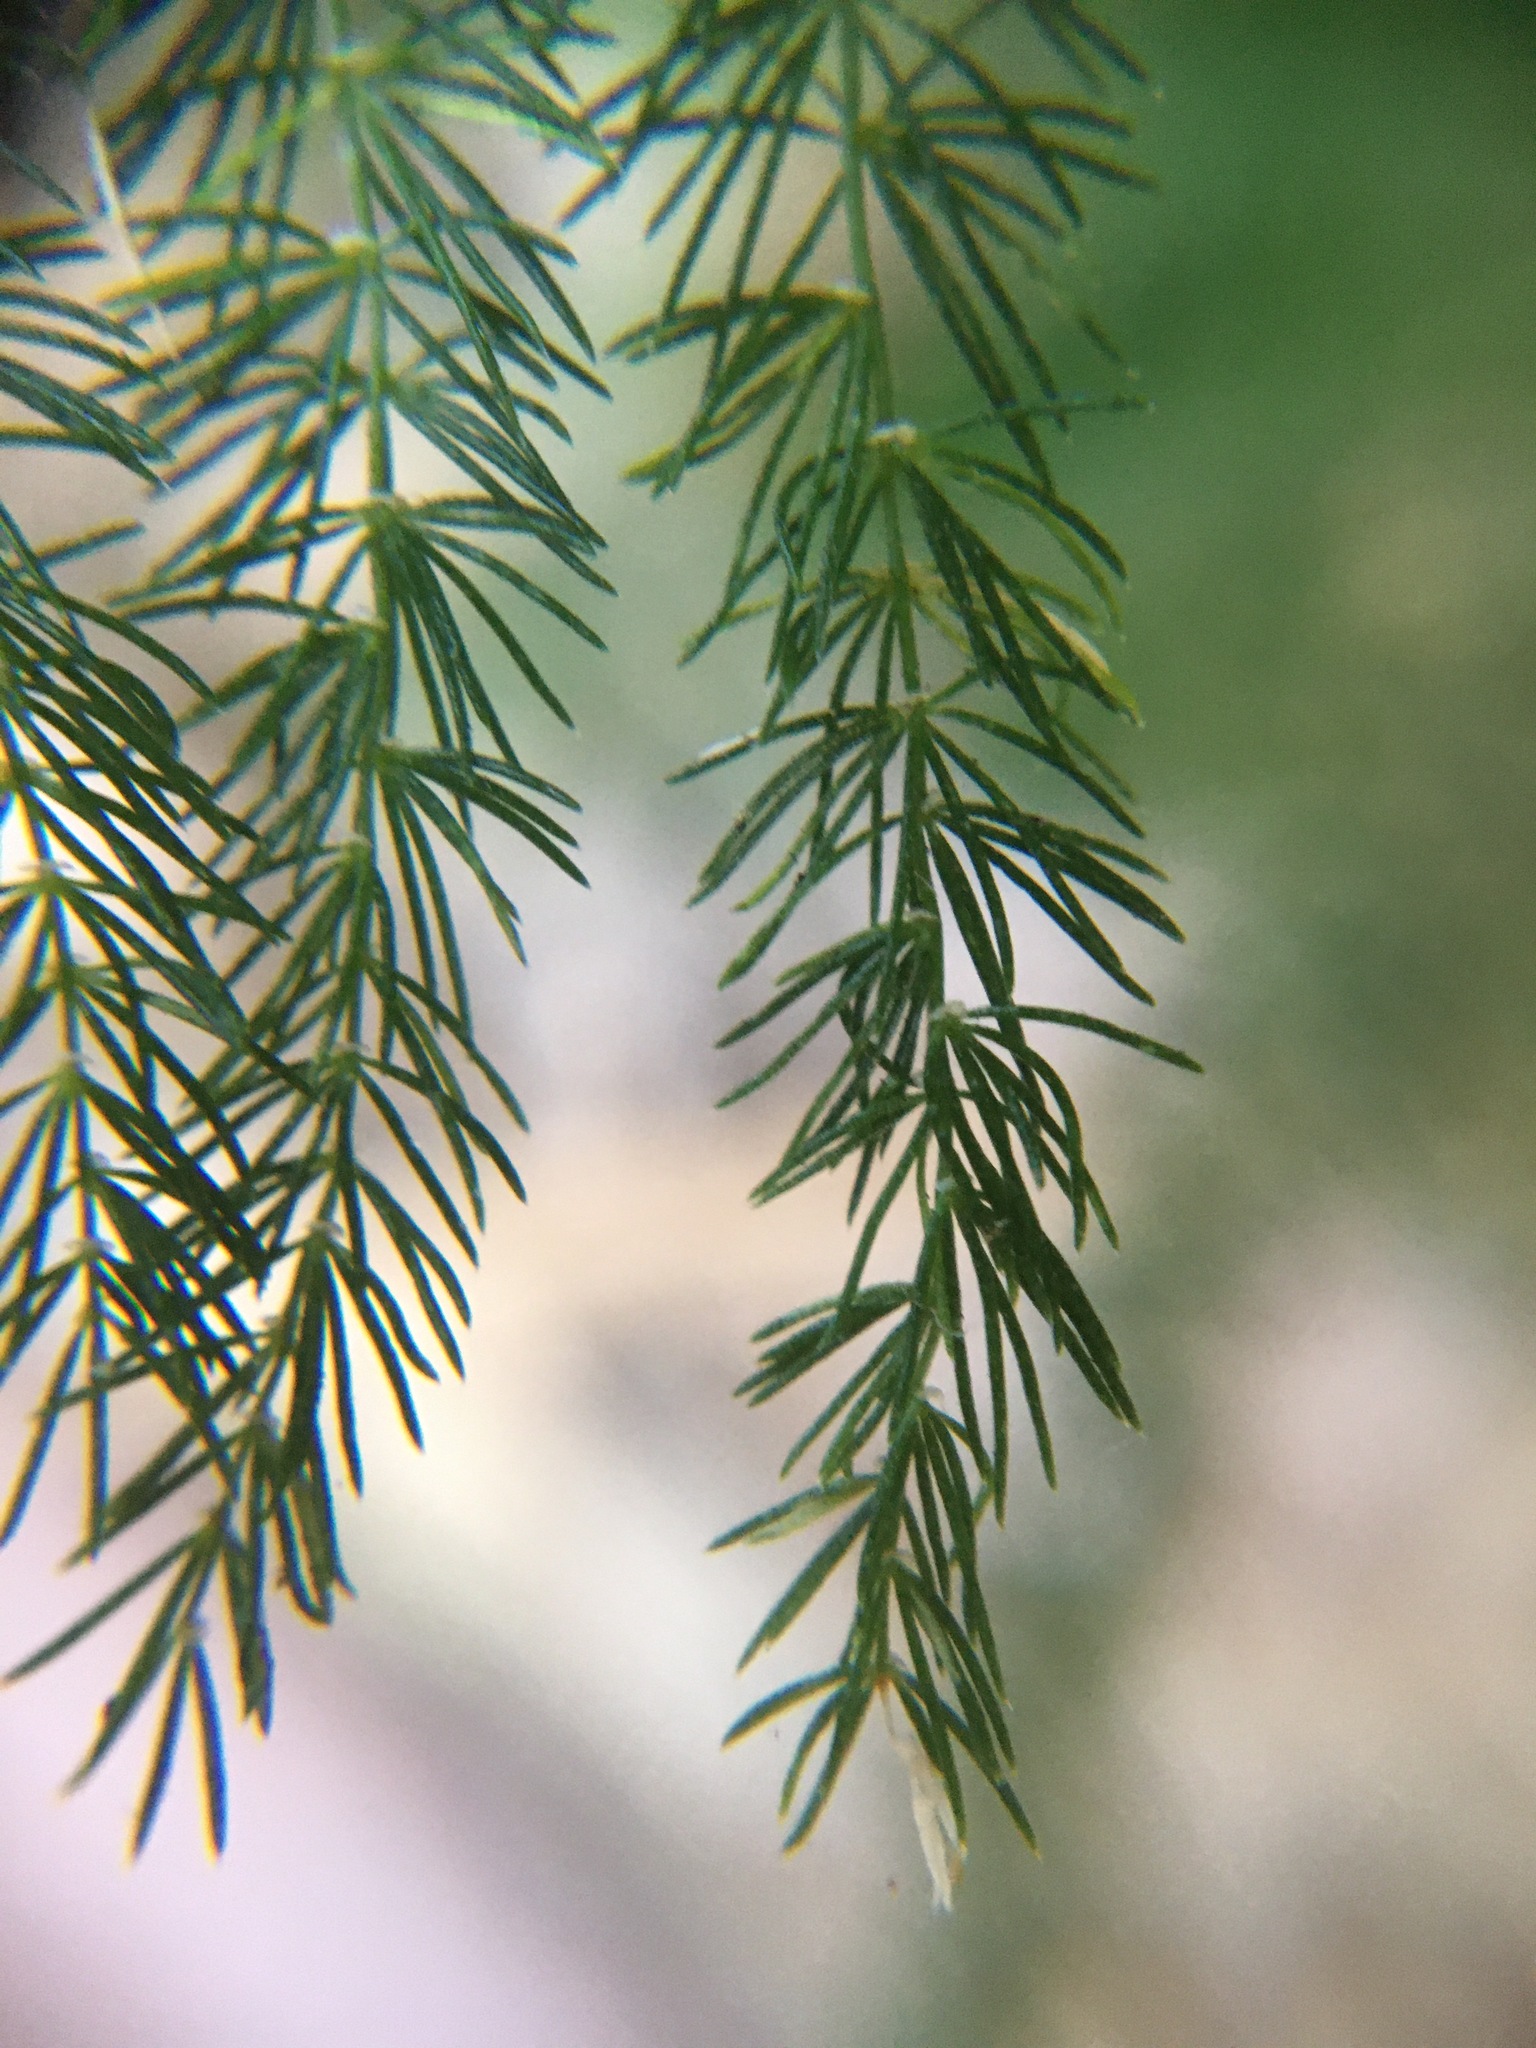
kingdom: Plantae
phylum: Tracheophyta
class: Liliopsida
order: Asparagales
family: Asparagaceae
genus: Asparagus
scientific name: Asparagus setaceus
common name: Common asparagus fern
